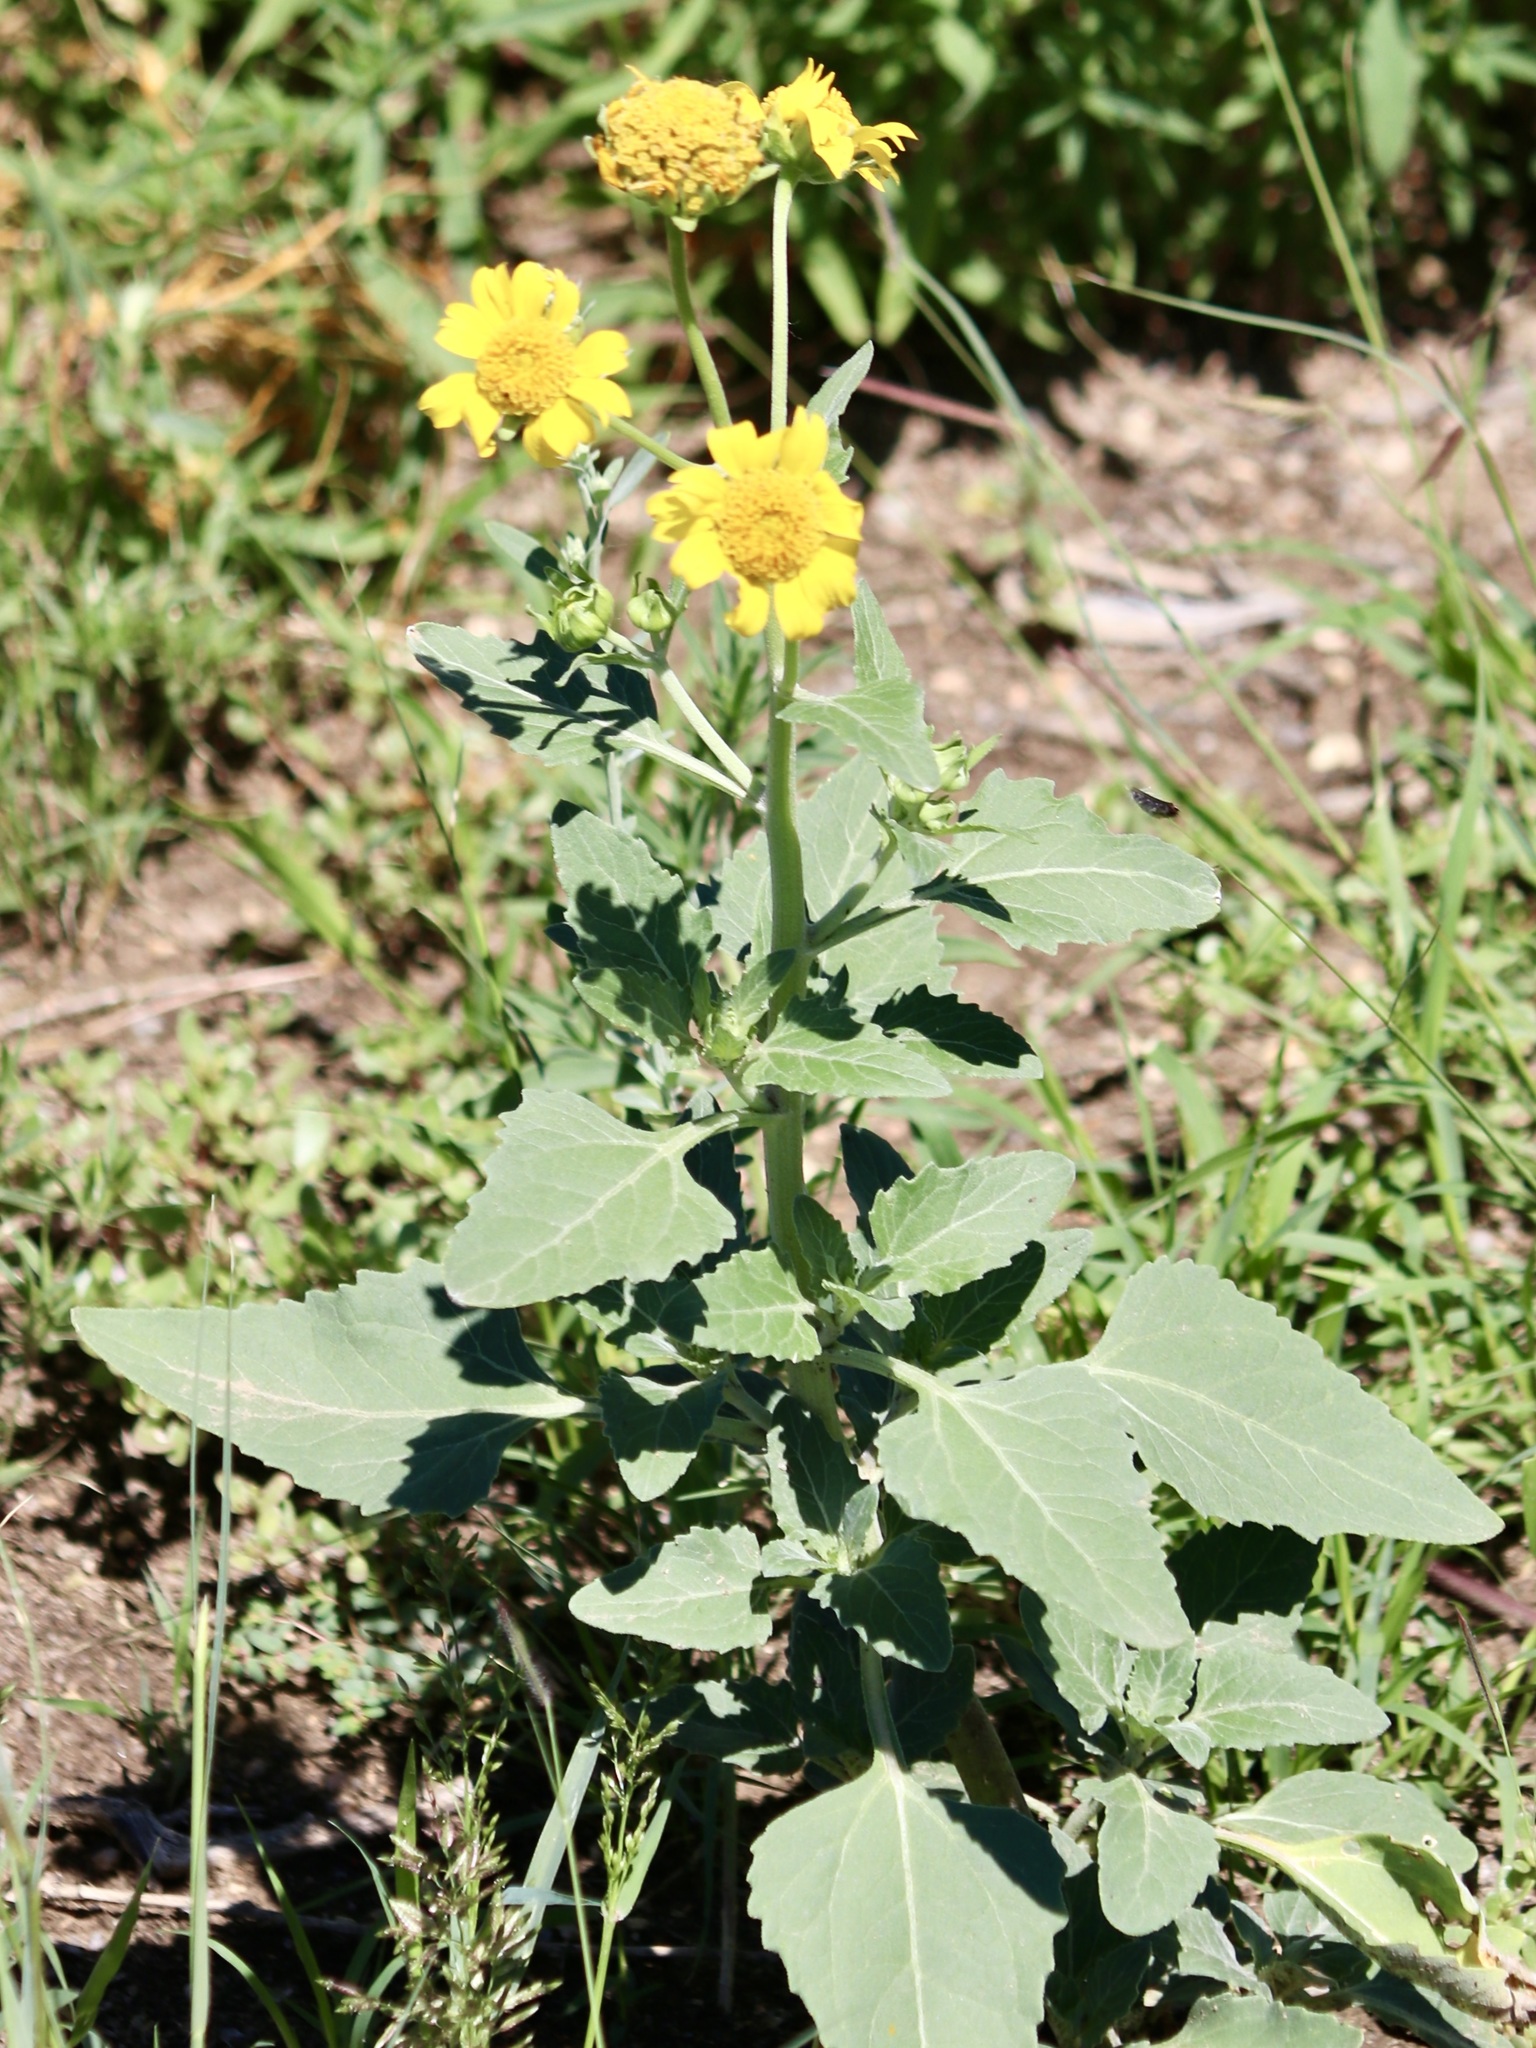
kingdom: Plantae
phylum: Tracheophyta
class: Magnoliopsida
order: Asterales
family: Asteraceae
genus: Verbesina
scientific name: Verbesina encelioides
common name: Golden crownbeard
